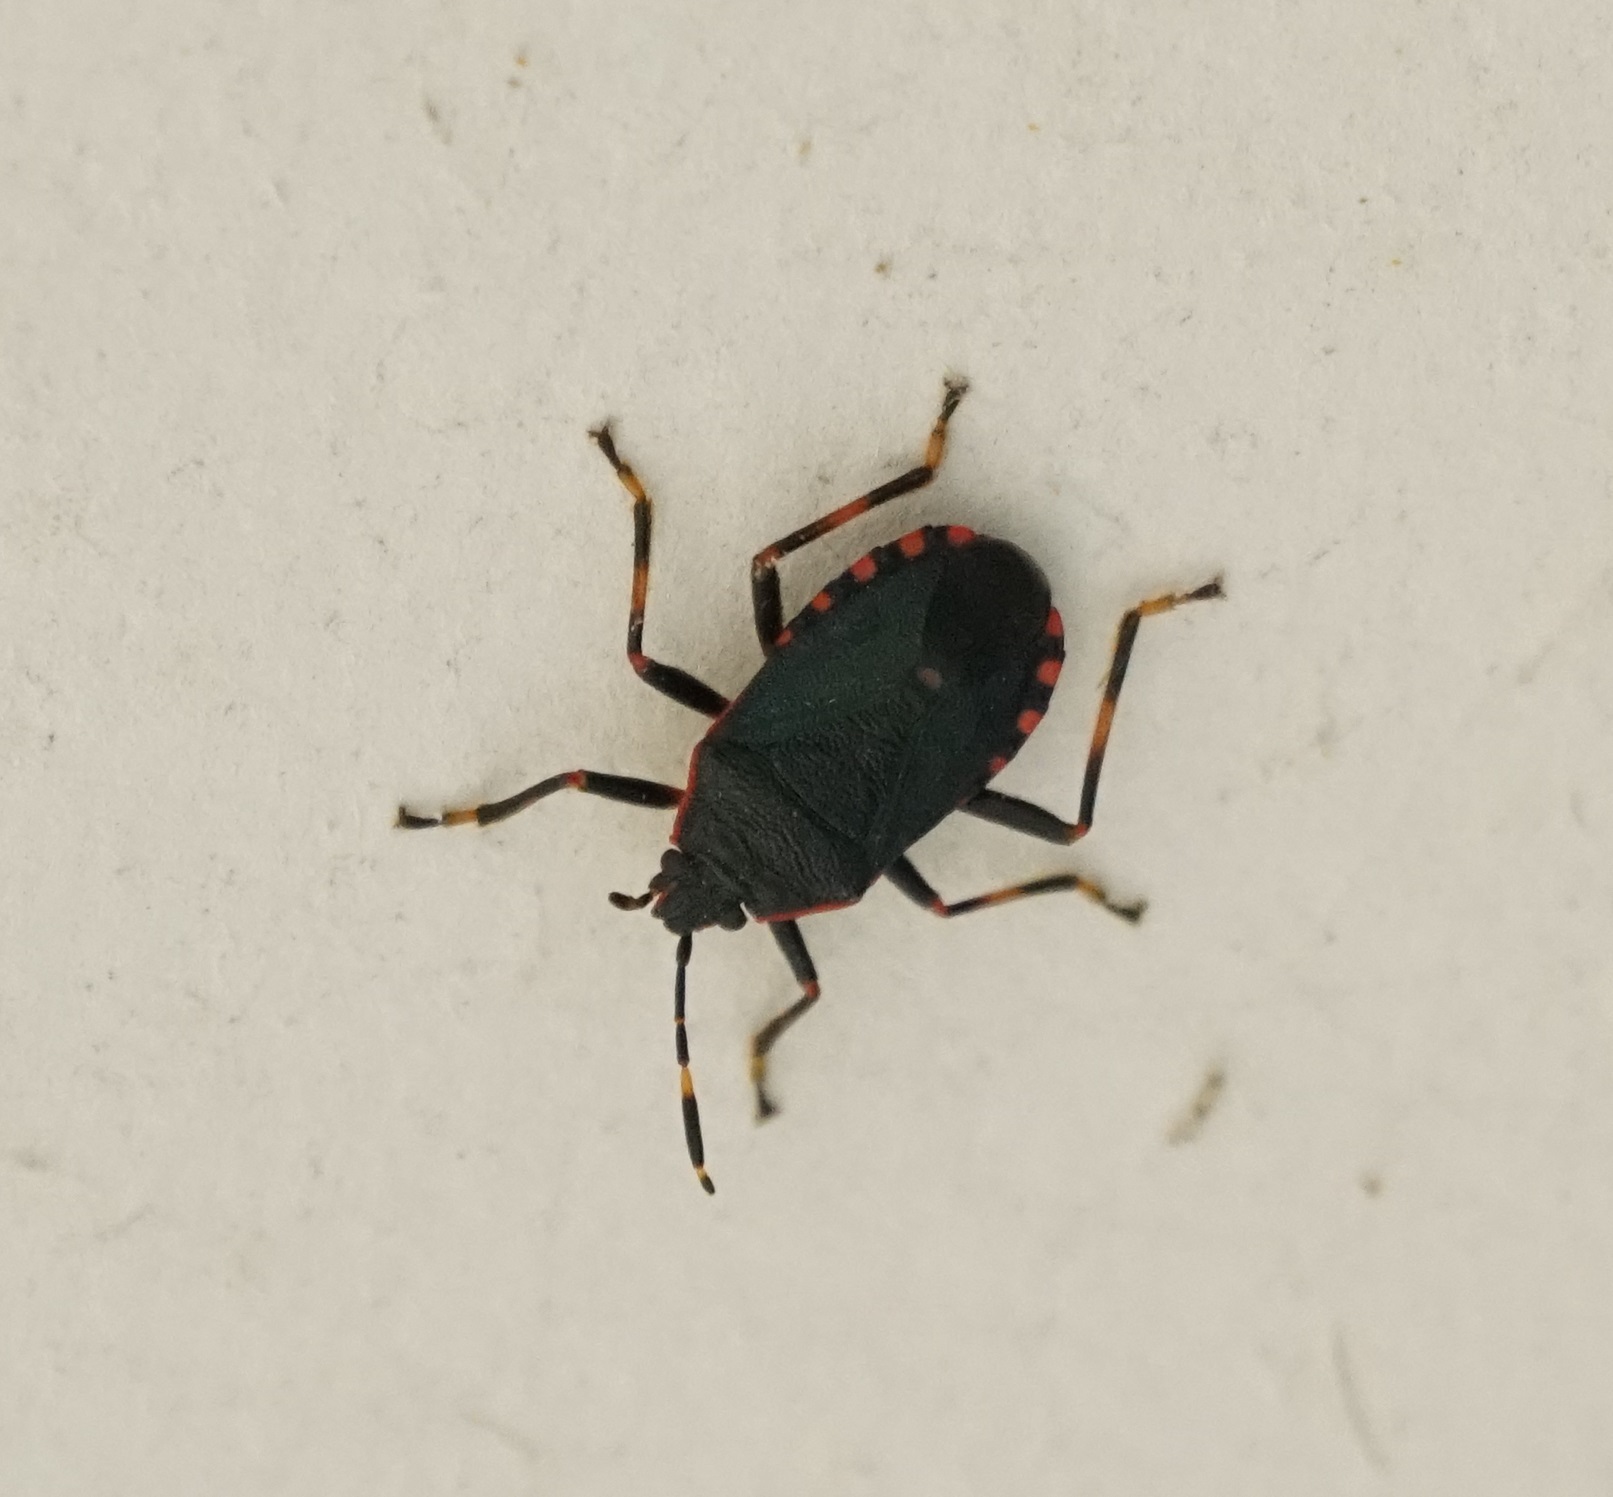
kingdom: Animalia
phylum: Arthropoda
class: Insecta
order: Hemiptera
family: Pentatomidae
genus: Notius
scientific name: Notius
